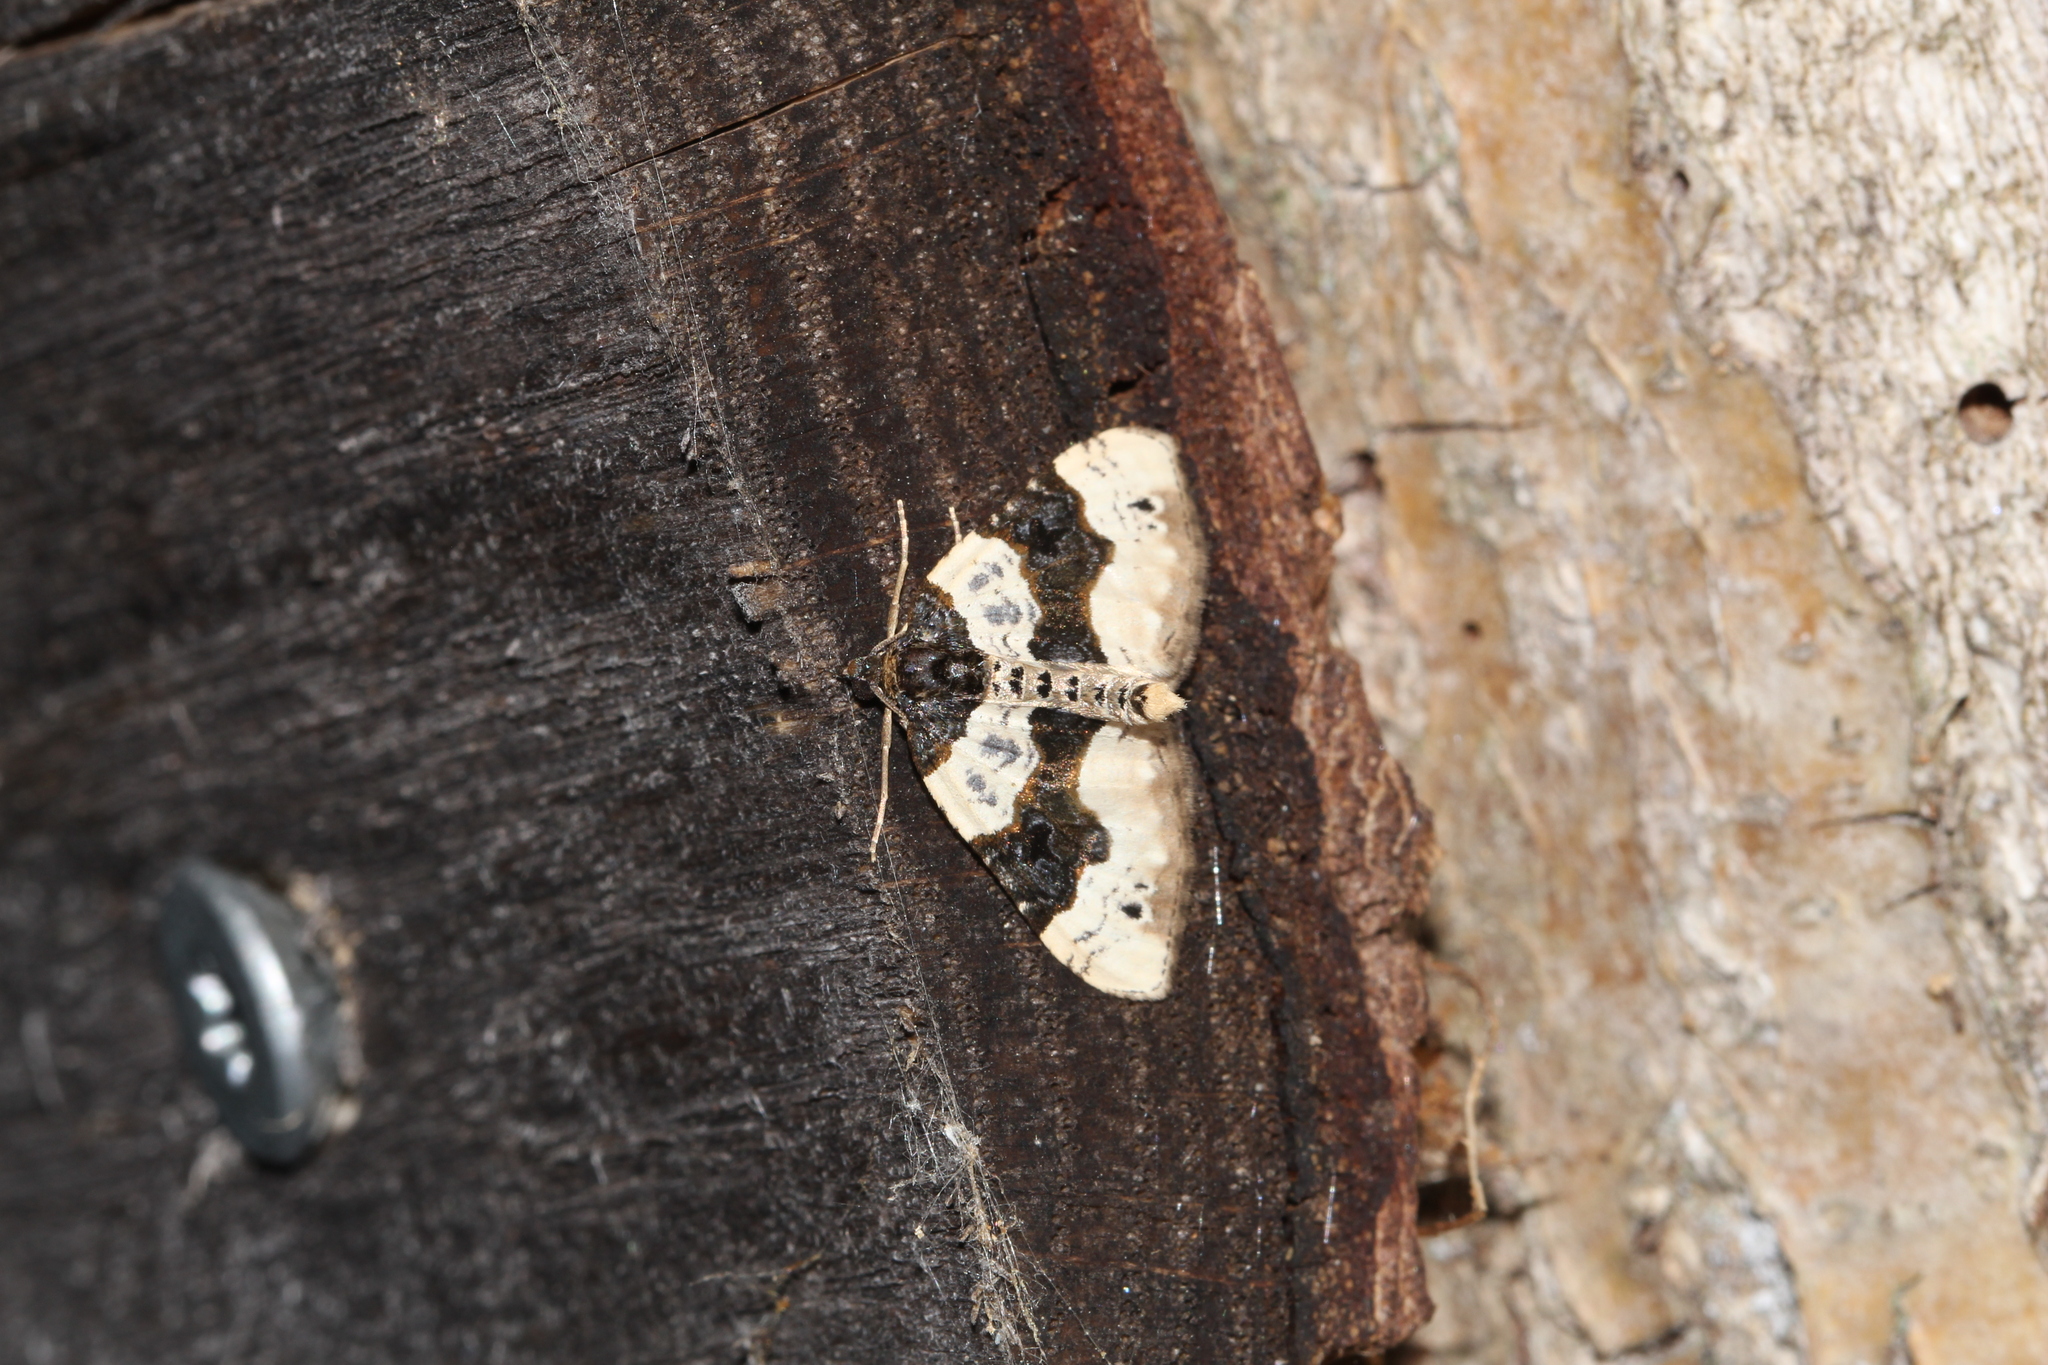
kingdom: Animalia
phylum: Arthropoda
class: Insecta
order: Lepidoptera
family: Geometridae
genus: Cosmorhoe
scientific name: Cosmorhoe ocellata
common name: Purple bar
